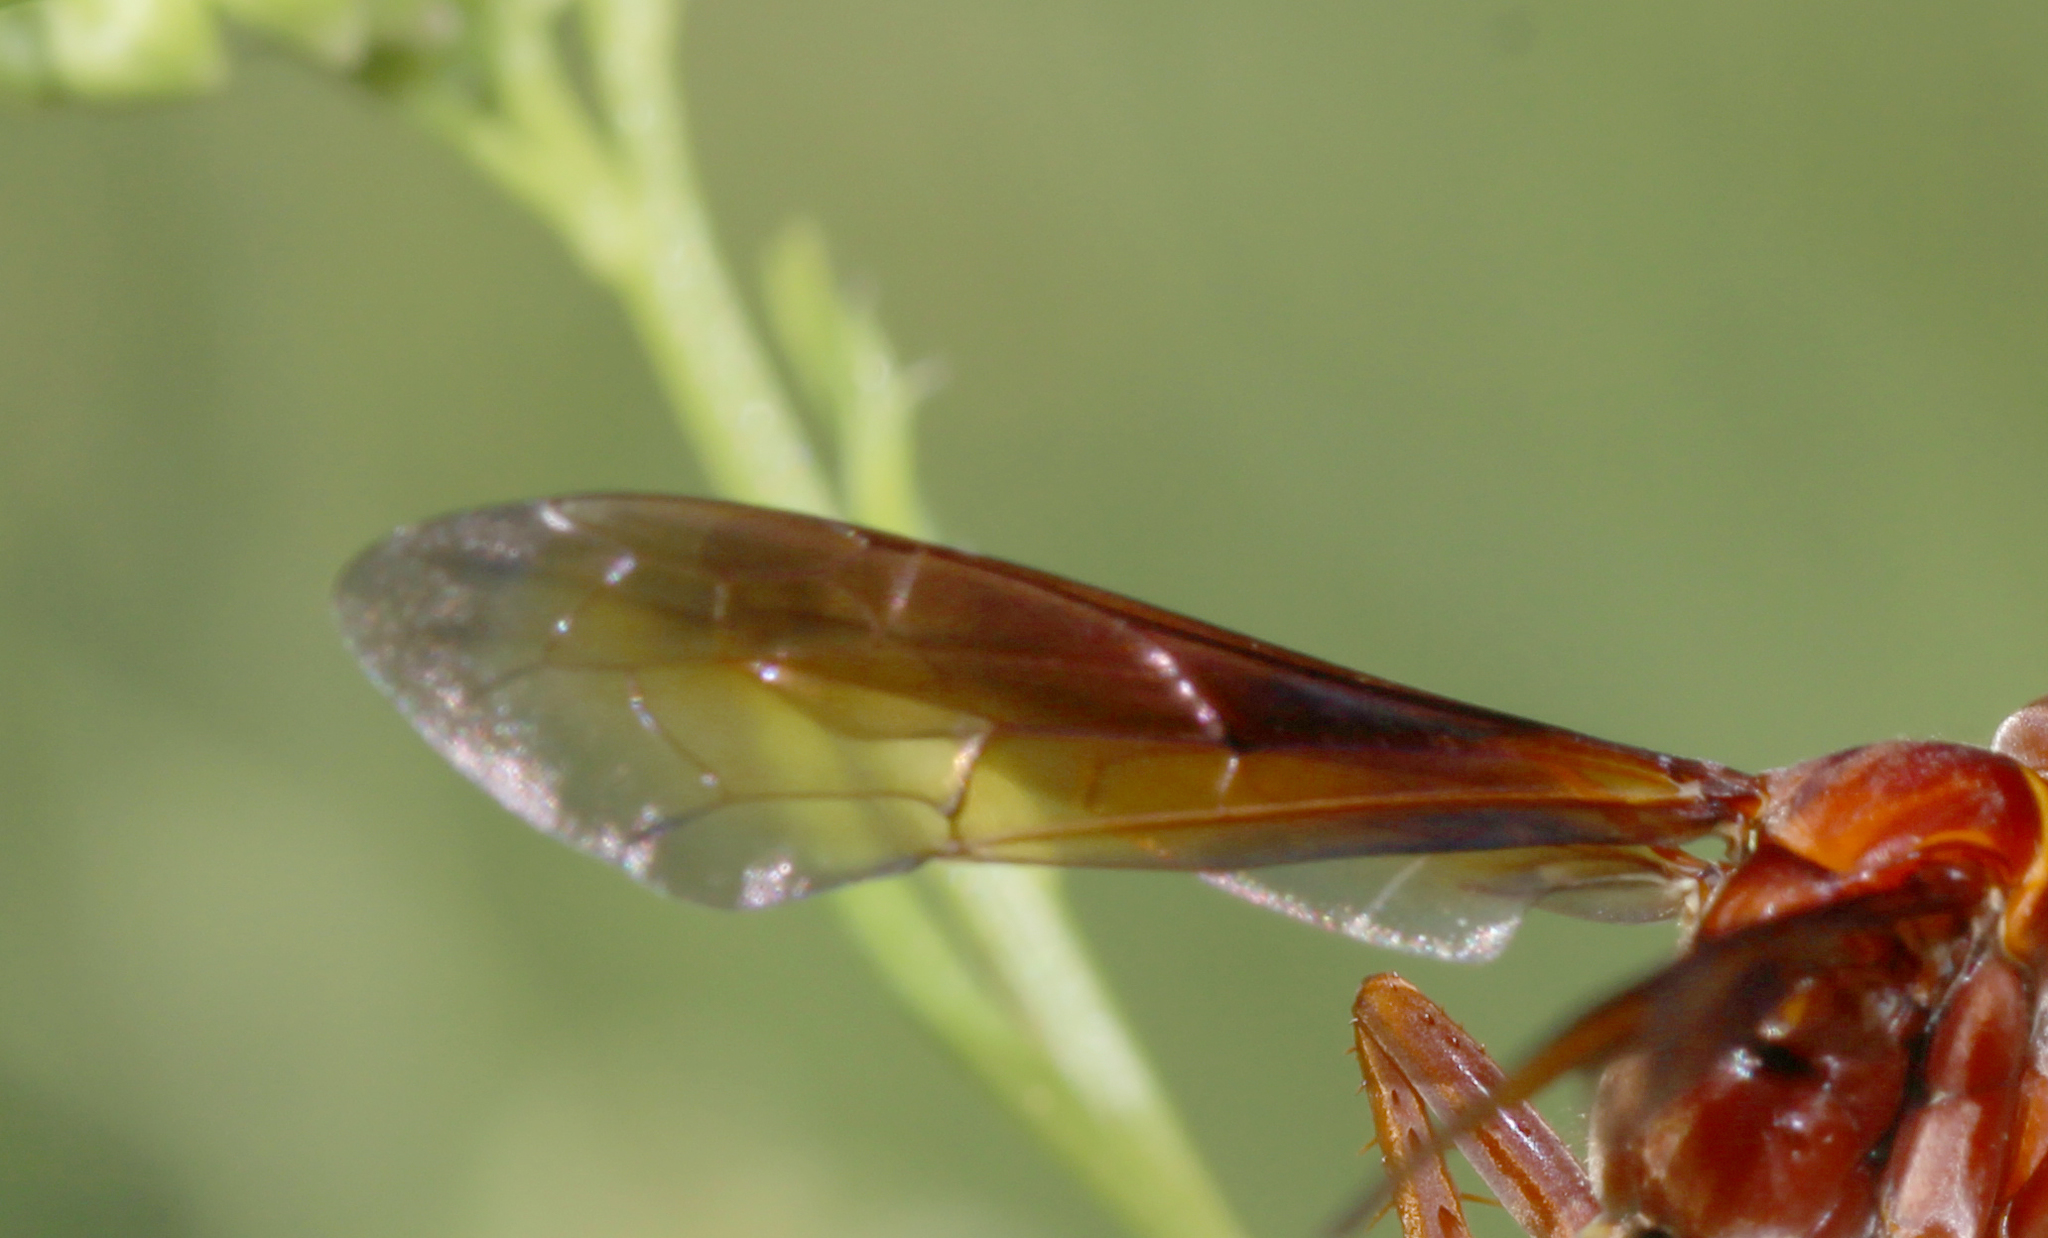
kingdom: Animalia
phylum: Arthropoda
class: Insecta
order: Hymenoptera
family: Pompilidae
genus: Poecilopompilus
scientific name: Poecilopompilus rubricatus
